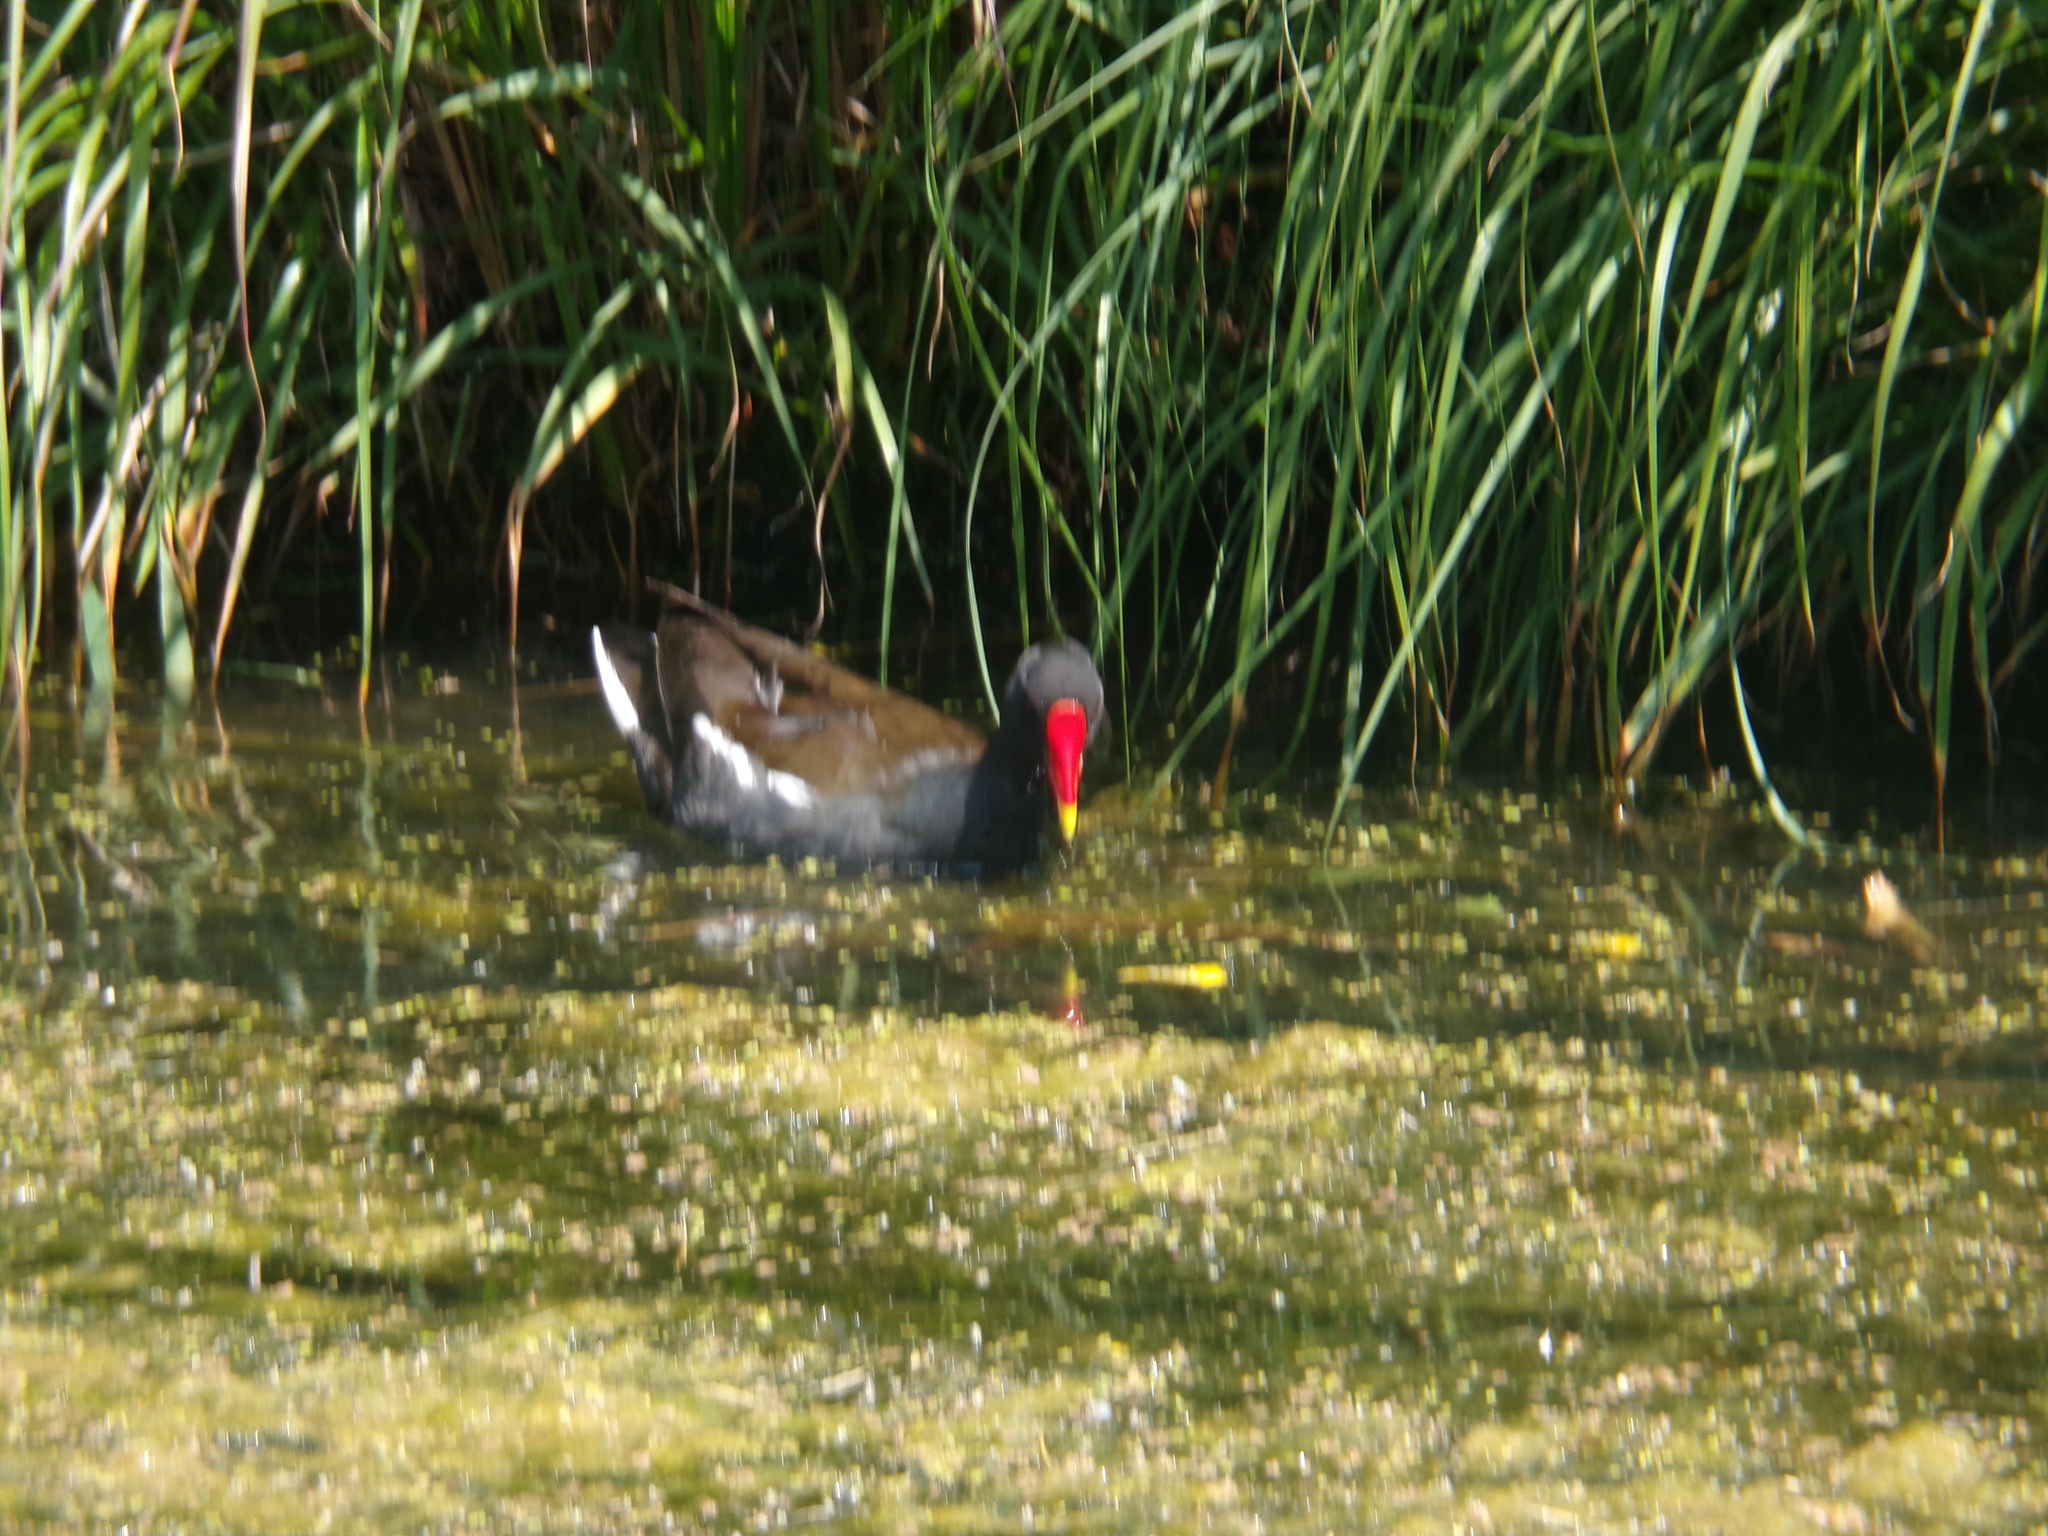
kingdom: Animalia
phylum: Chordata
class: Aves
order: Gruiformes
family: Rallidae
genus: Gallinula
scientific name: Gallinula chloropus
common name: Common moorhen
